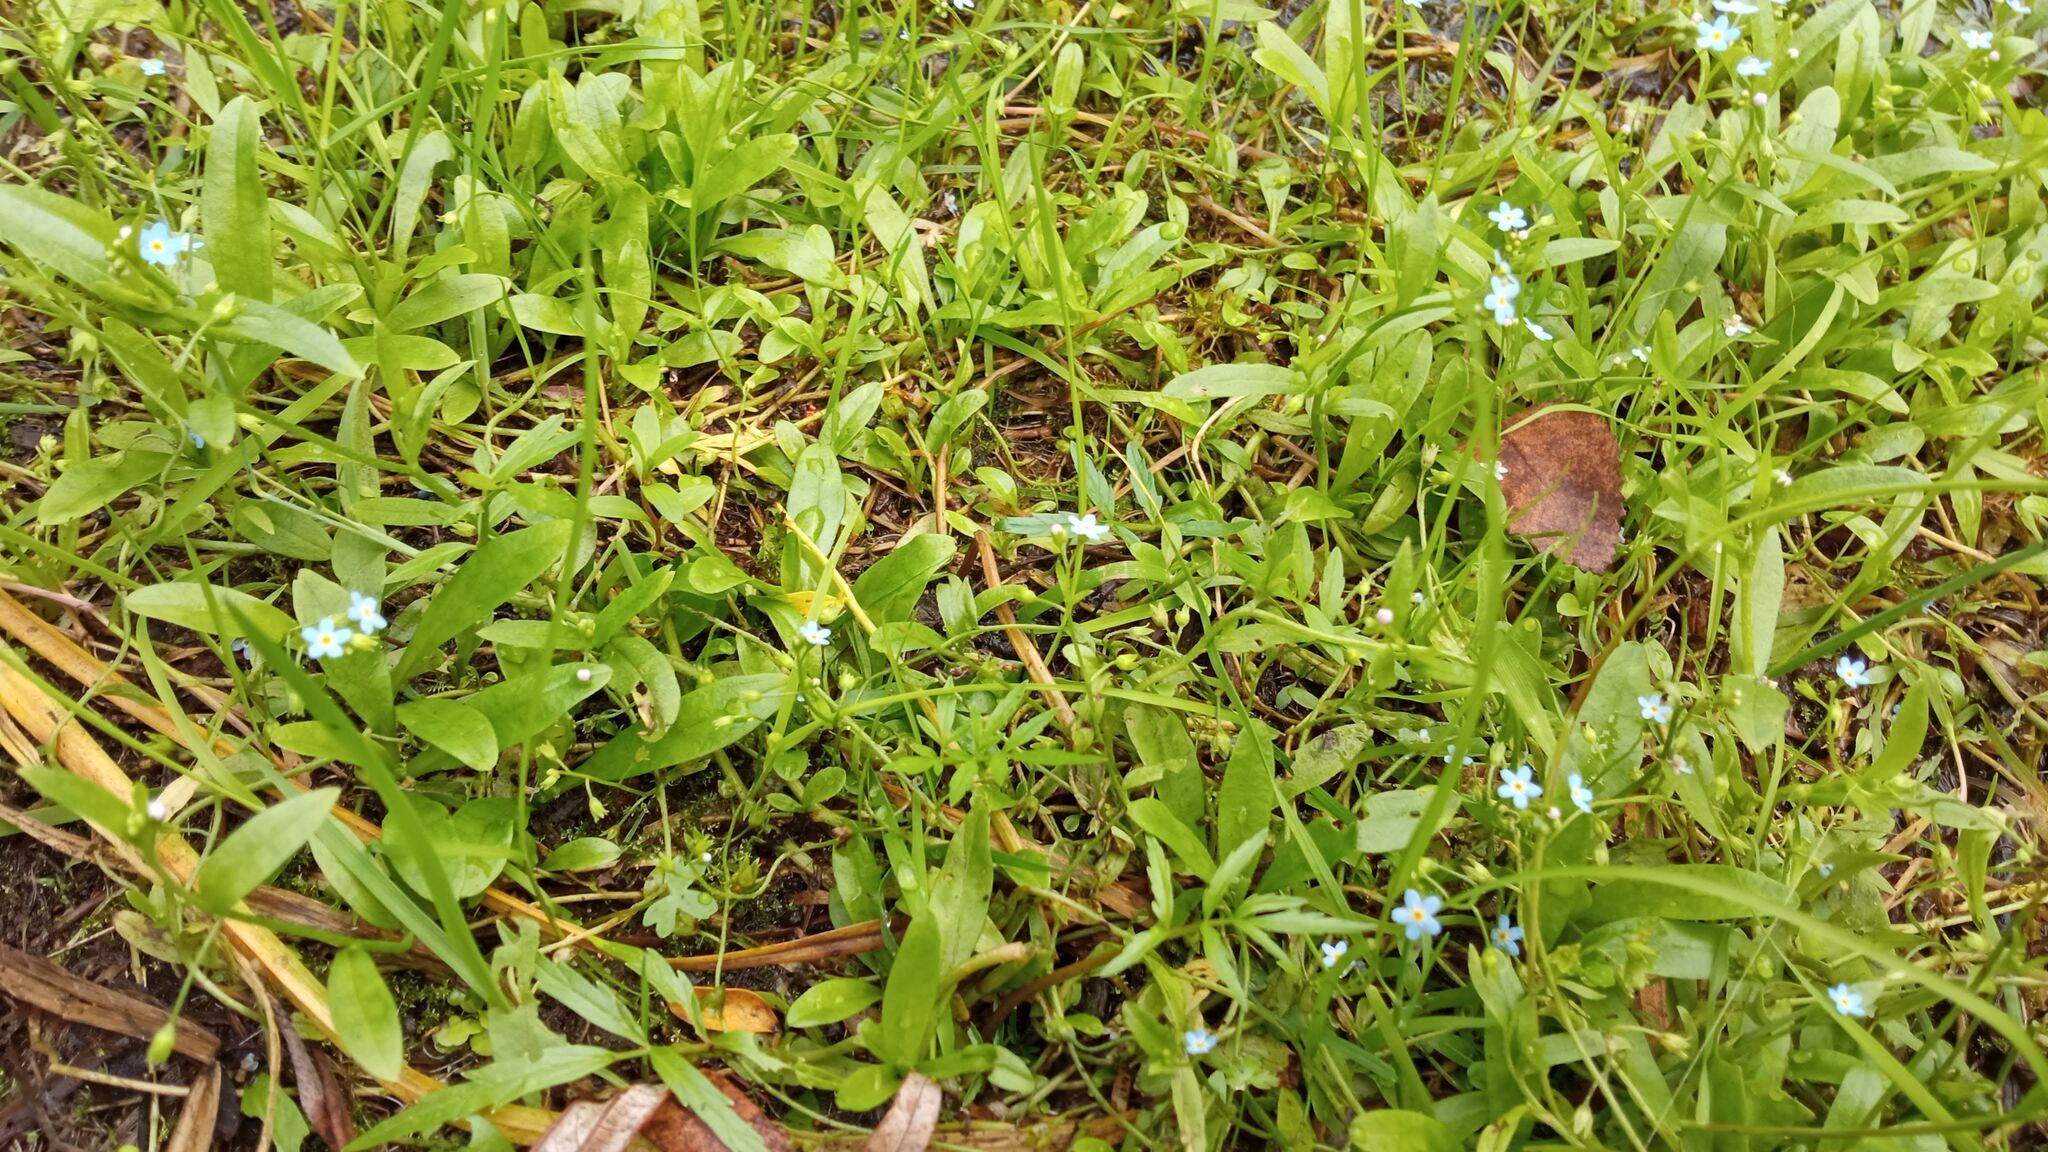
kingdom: Plantae
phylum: Tracheophyta
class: Magnoliopsida
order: Boraginales
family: Boraginaceae
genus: Myosotis
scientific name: Myosotis scorpioides
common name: Water forget-me-not
